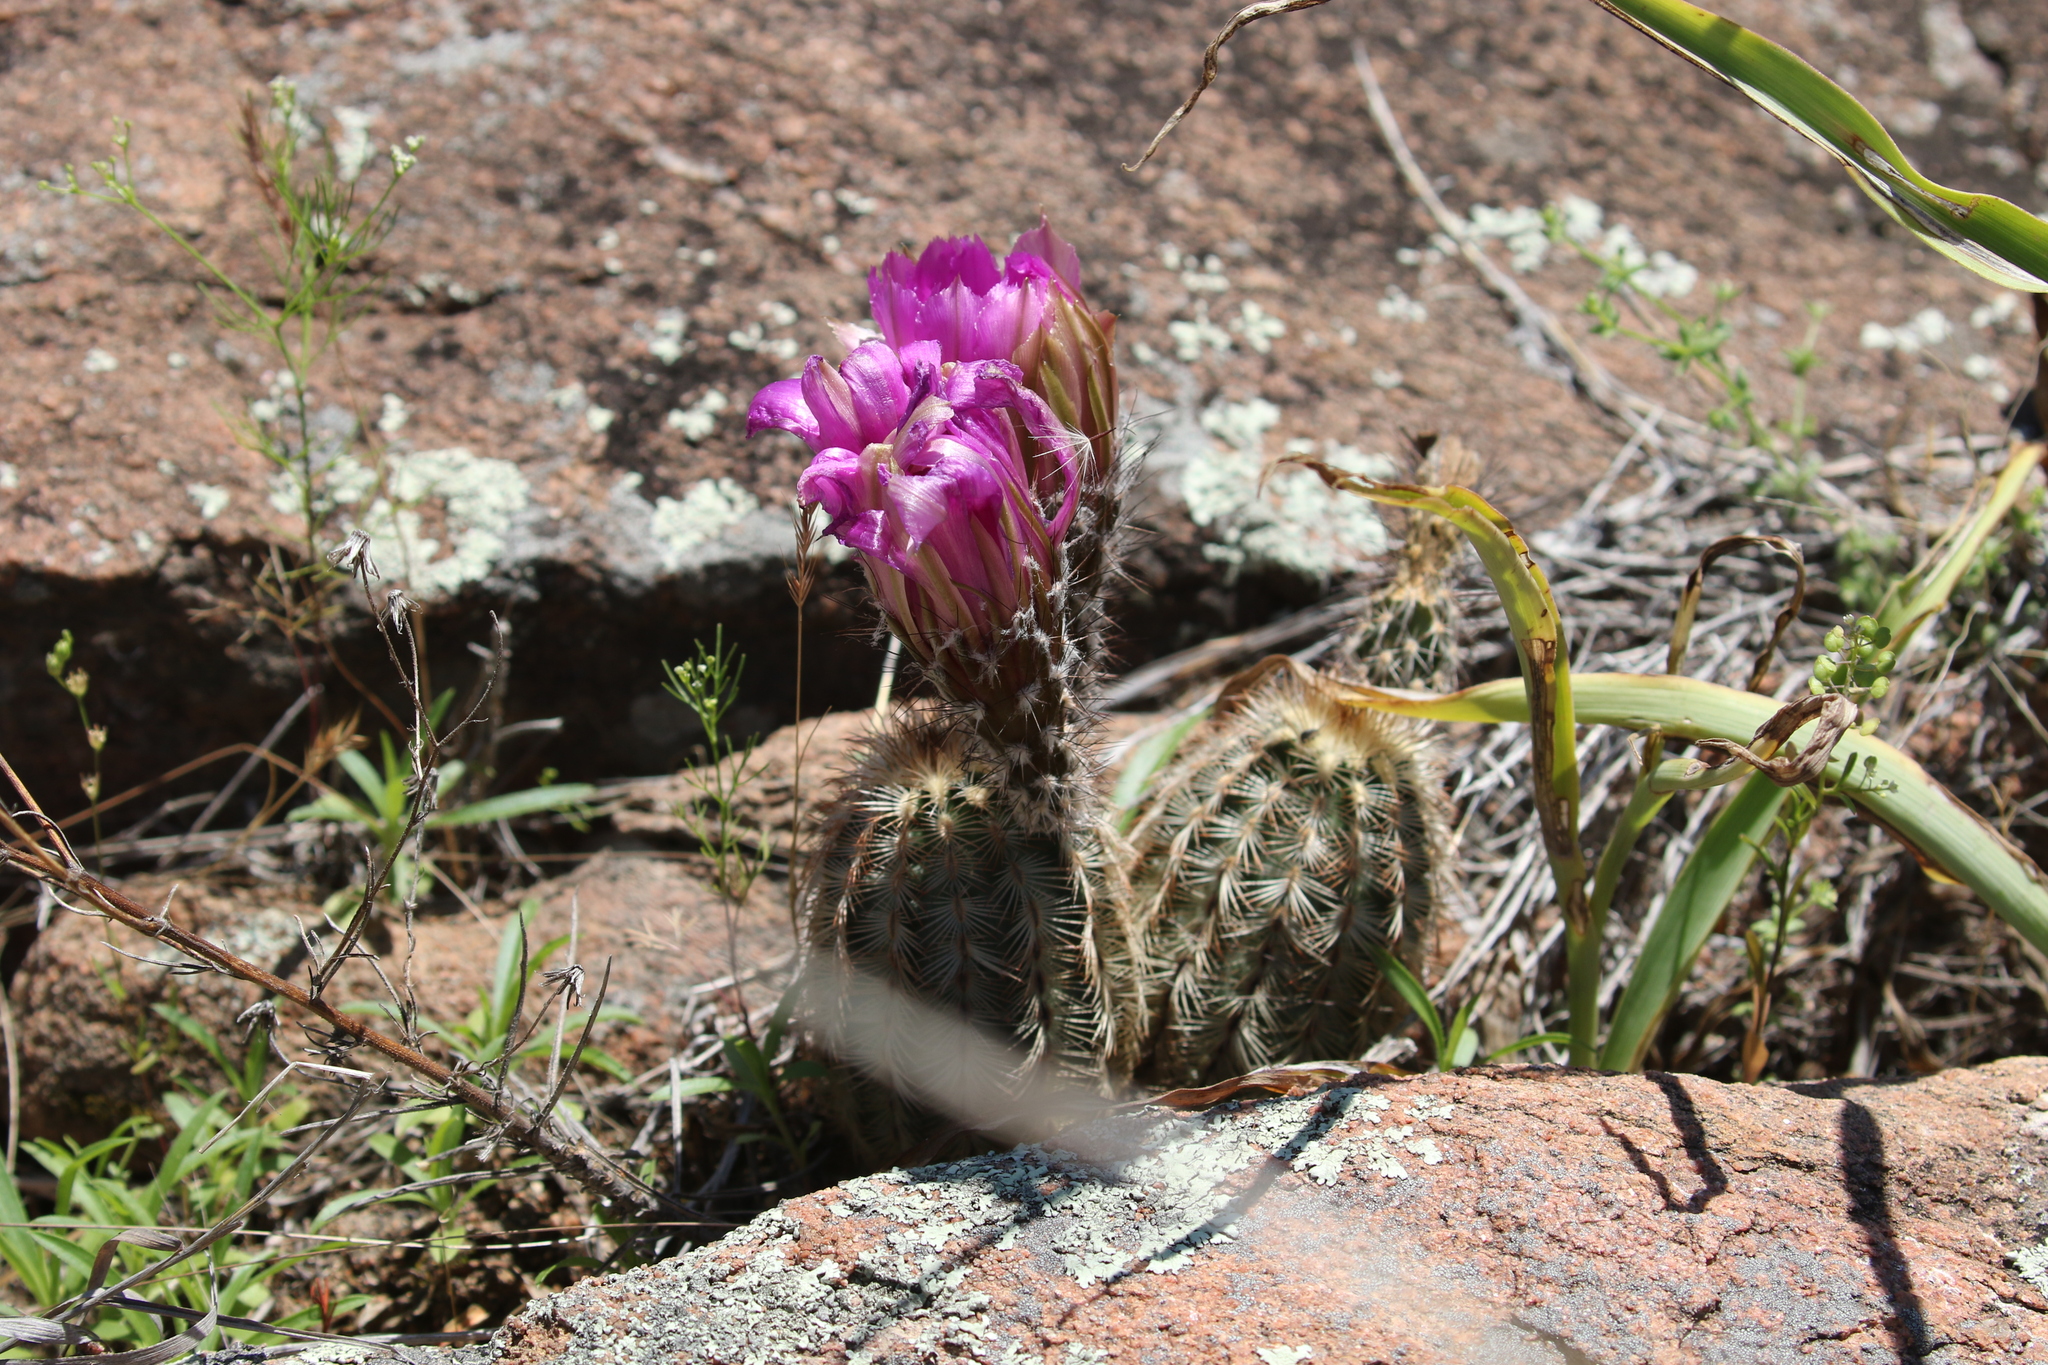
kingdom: Plantae
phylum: Tracheophyta
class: Magnoliopsida
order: Caryophyllales
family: Cactaceae
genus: Echinocereus
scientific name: Echinocereus reichenbachii
